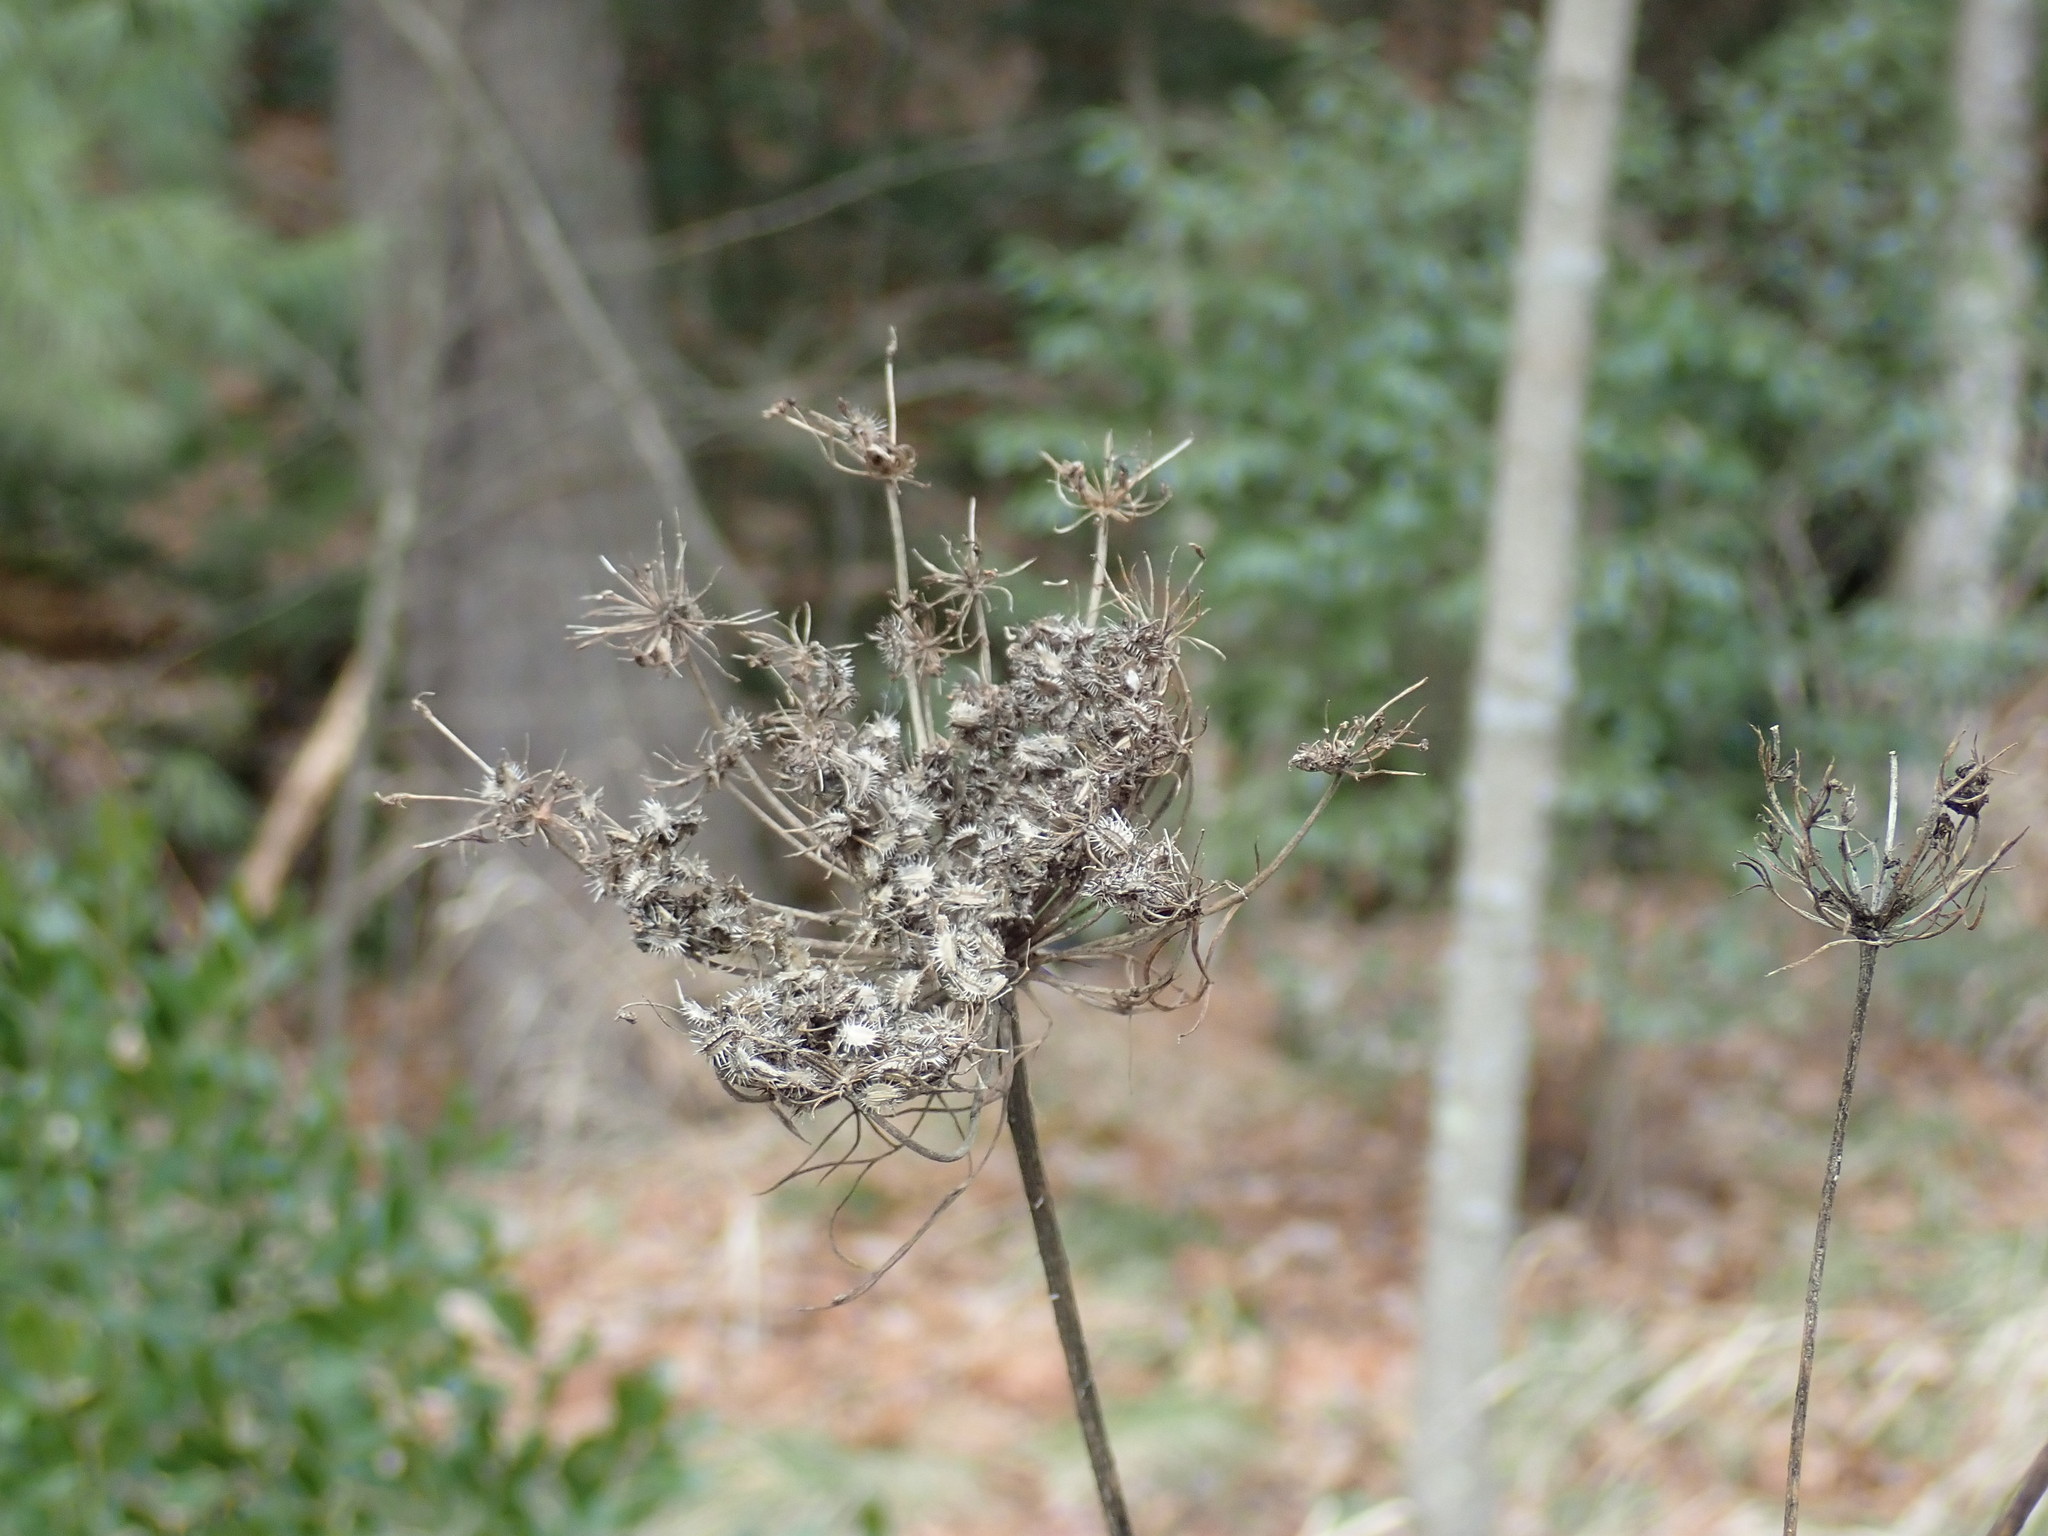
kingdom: Plantae
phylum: Tracheophyta
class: Magnoliopsida
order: Apiales
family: Apiaceae
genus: Daucus
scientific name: Daucus carota
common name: Wild carrot
